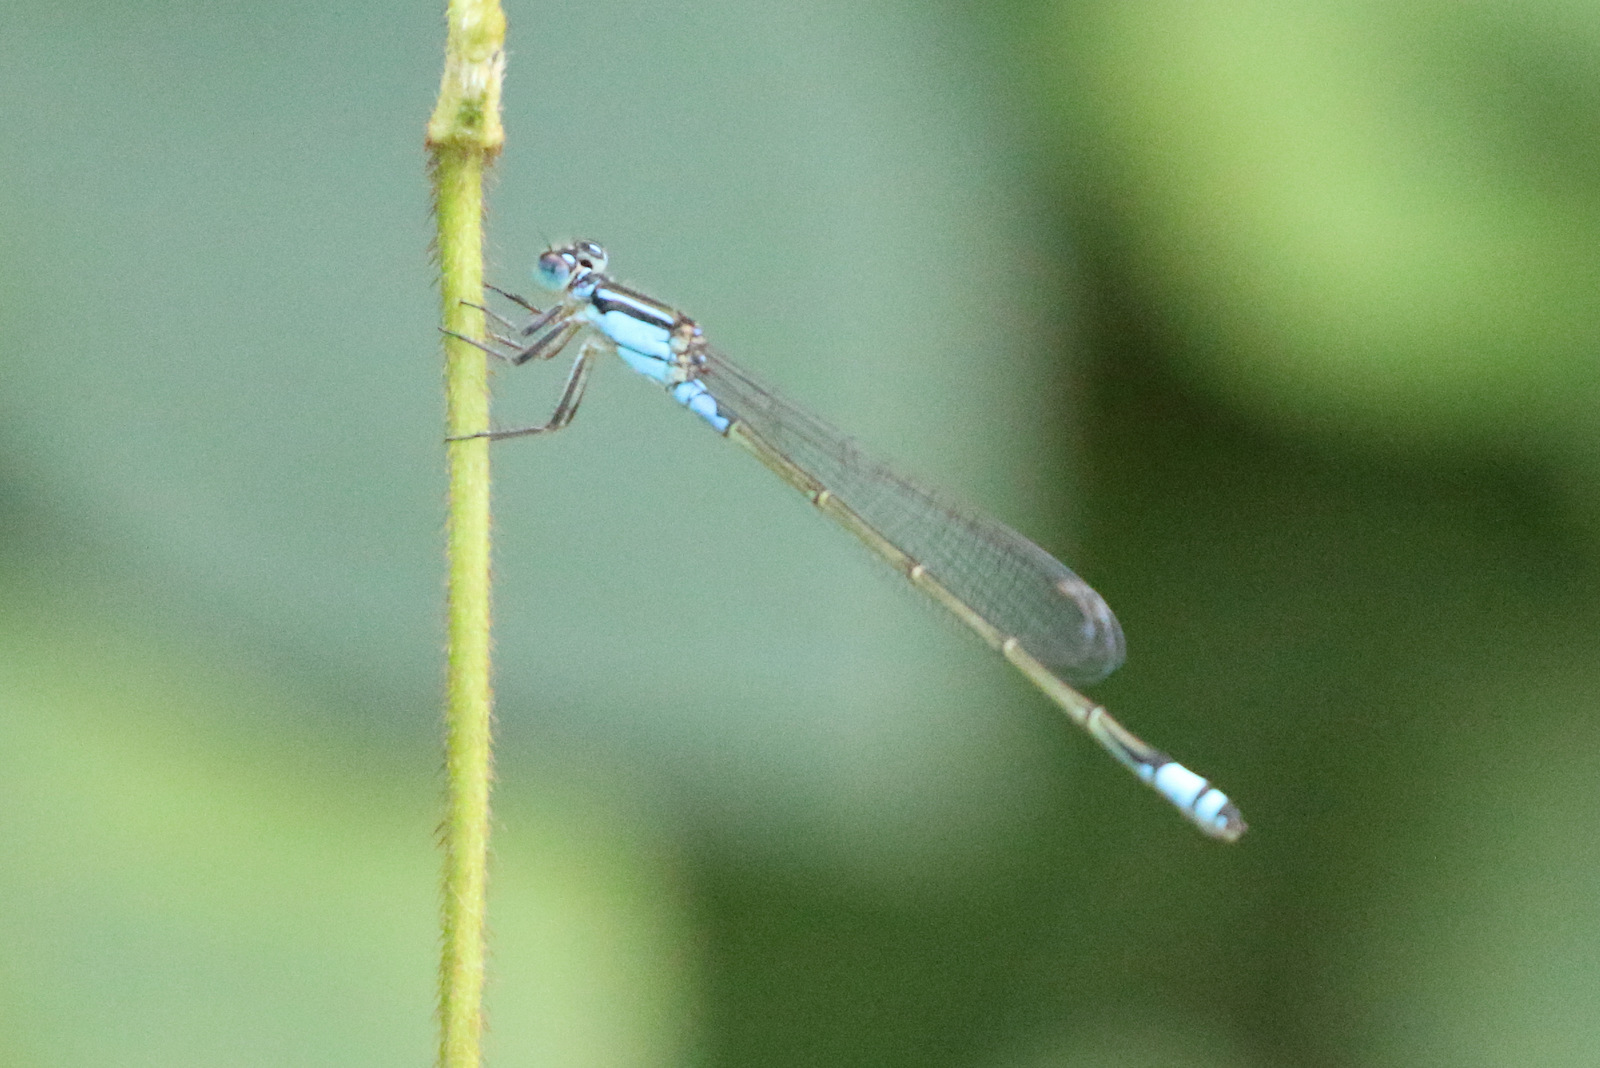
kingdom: Animalia
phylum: Arthropoda
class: Insecta
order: Odonata
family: Coenagrionidae
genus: Ischnura
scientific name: Ischnura heterosticta
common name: Common bluetail
